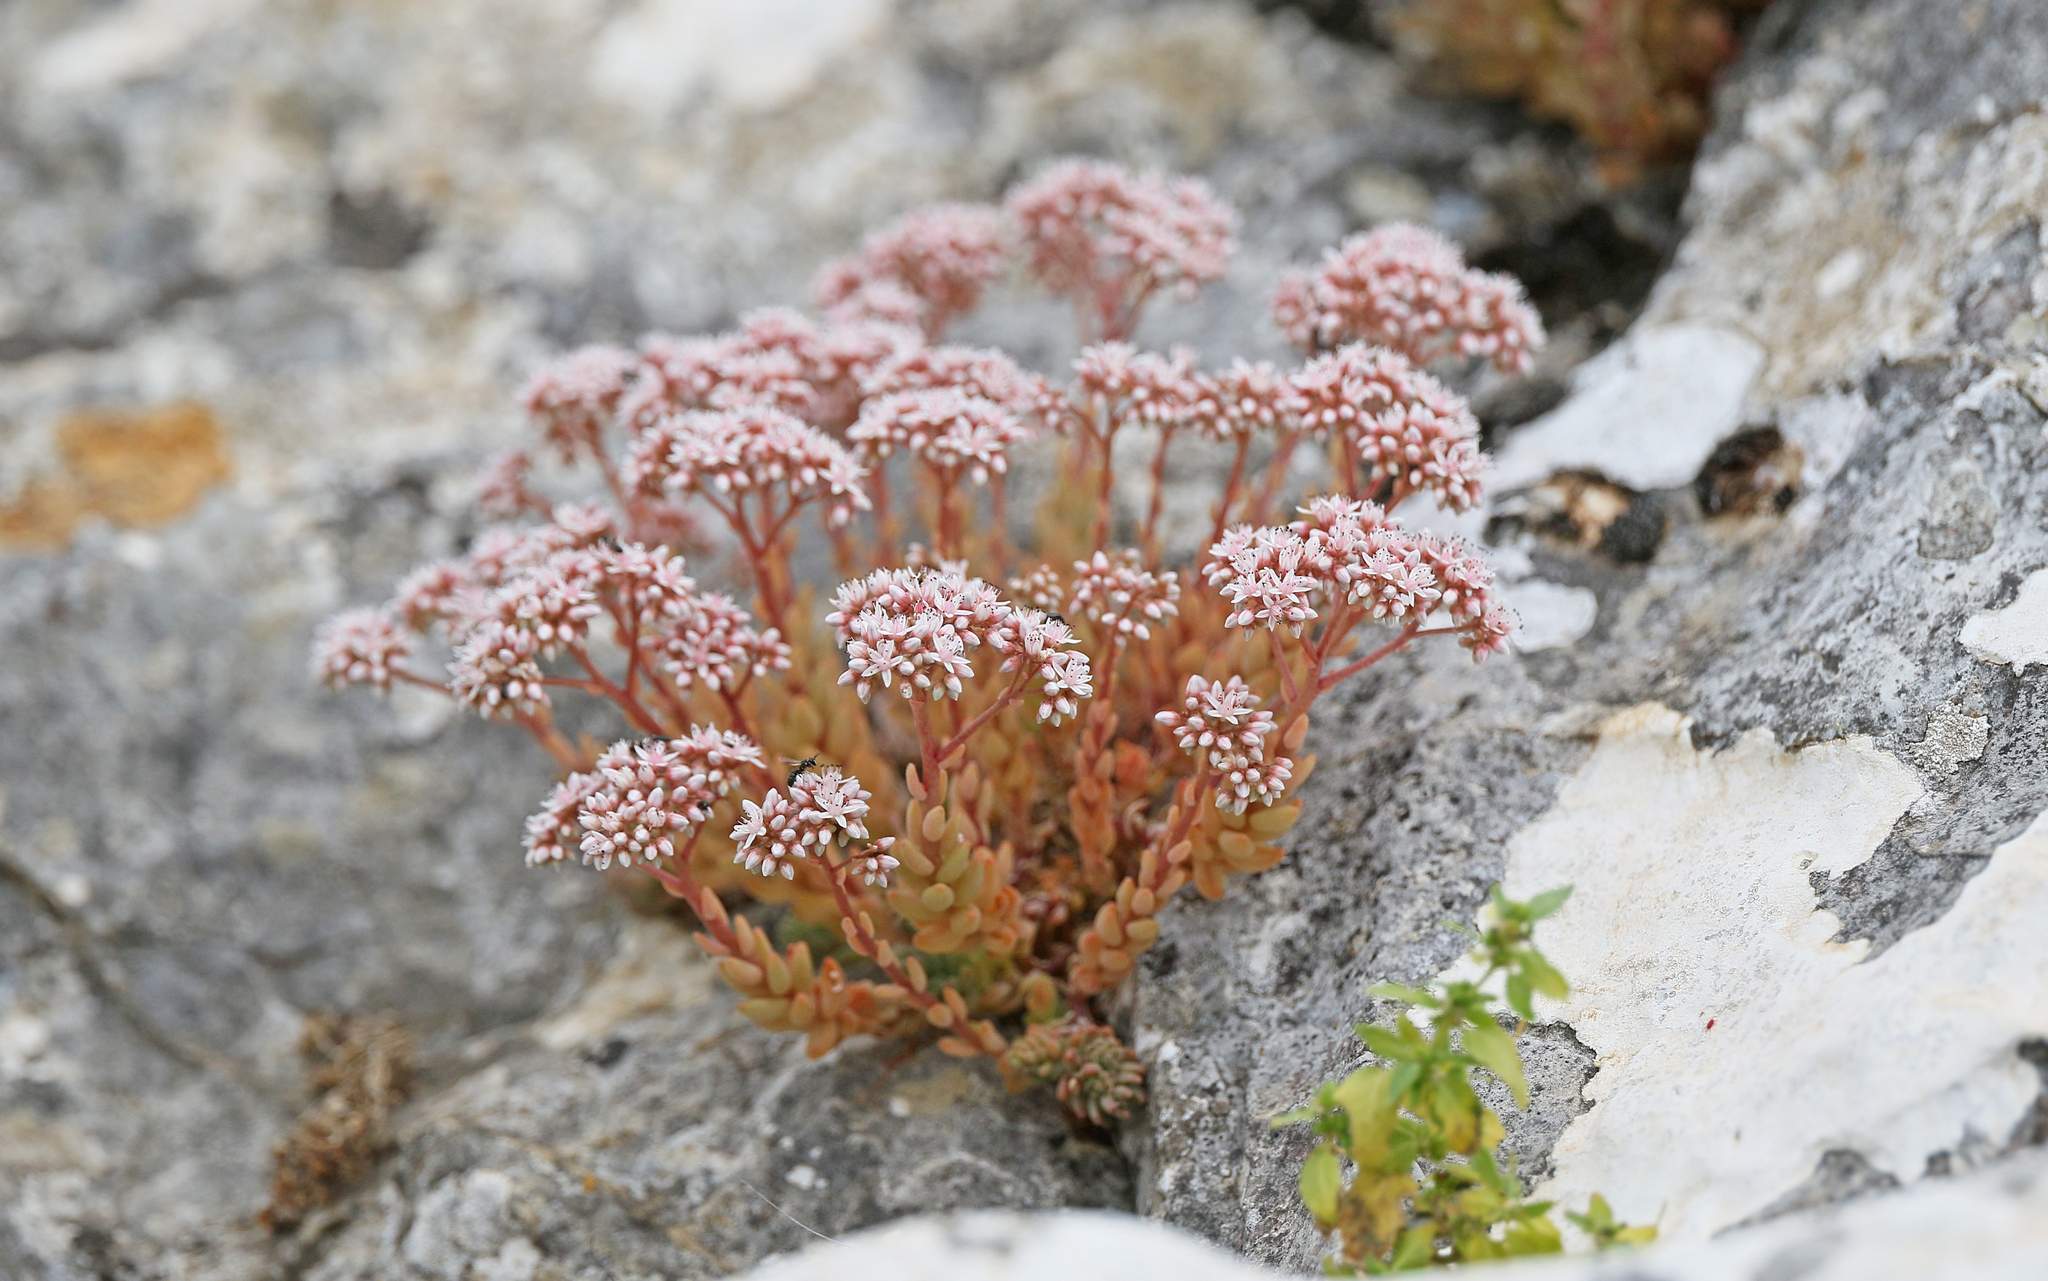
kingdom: Plantae
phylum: Tracheophyta
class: Magnoliopsida
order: Saxifragales
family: Crassulaceae
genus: Sedum
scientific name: Sedum album
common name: White stonecrop
